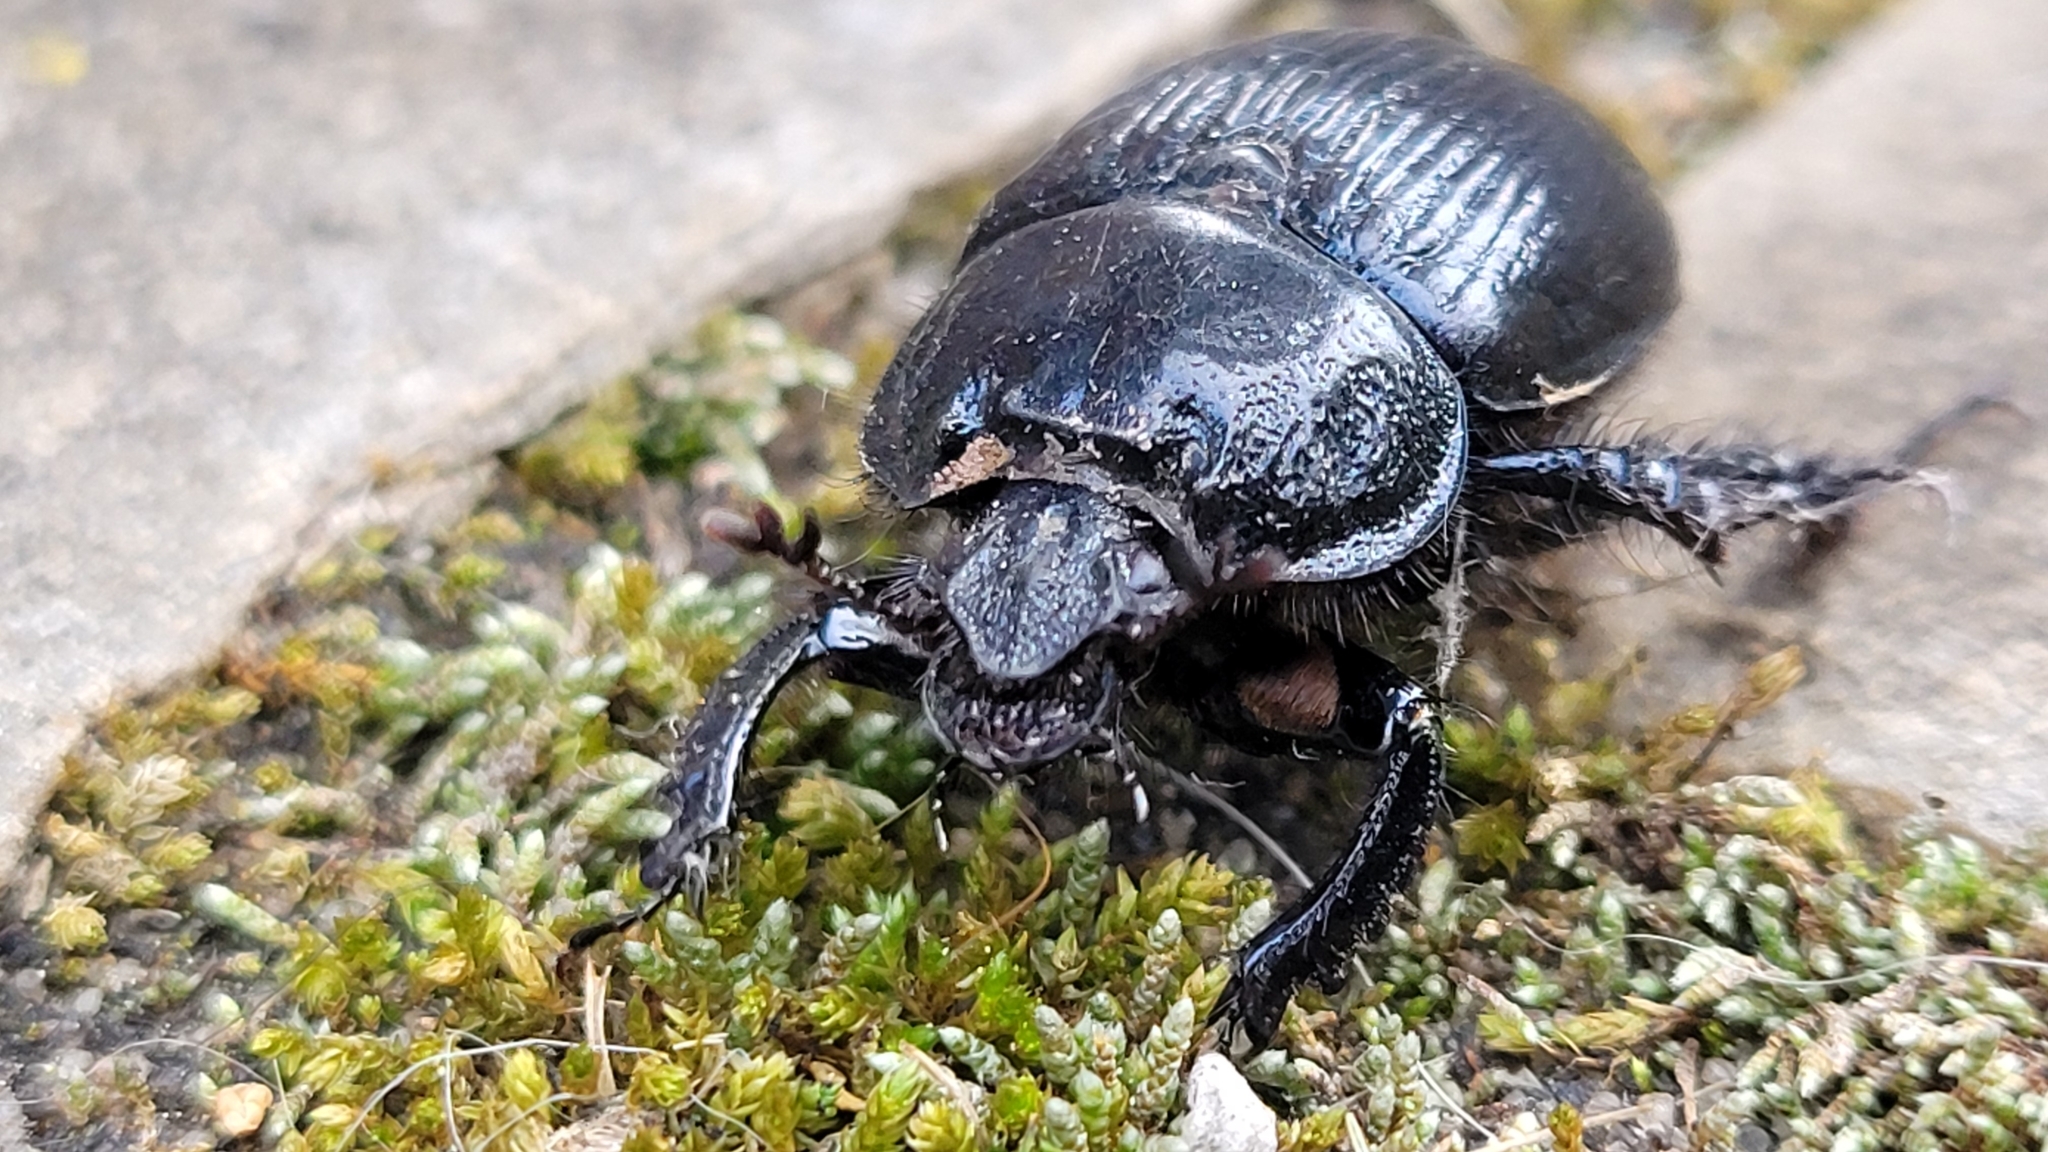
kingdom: Animalia
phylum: Arthropoda
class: Insecta
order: Coleoptera
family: Geotrupidae
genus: Typhaeus
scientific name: Typhaeus typhoeus
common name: Minotaur beetle
